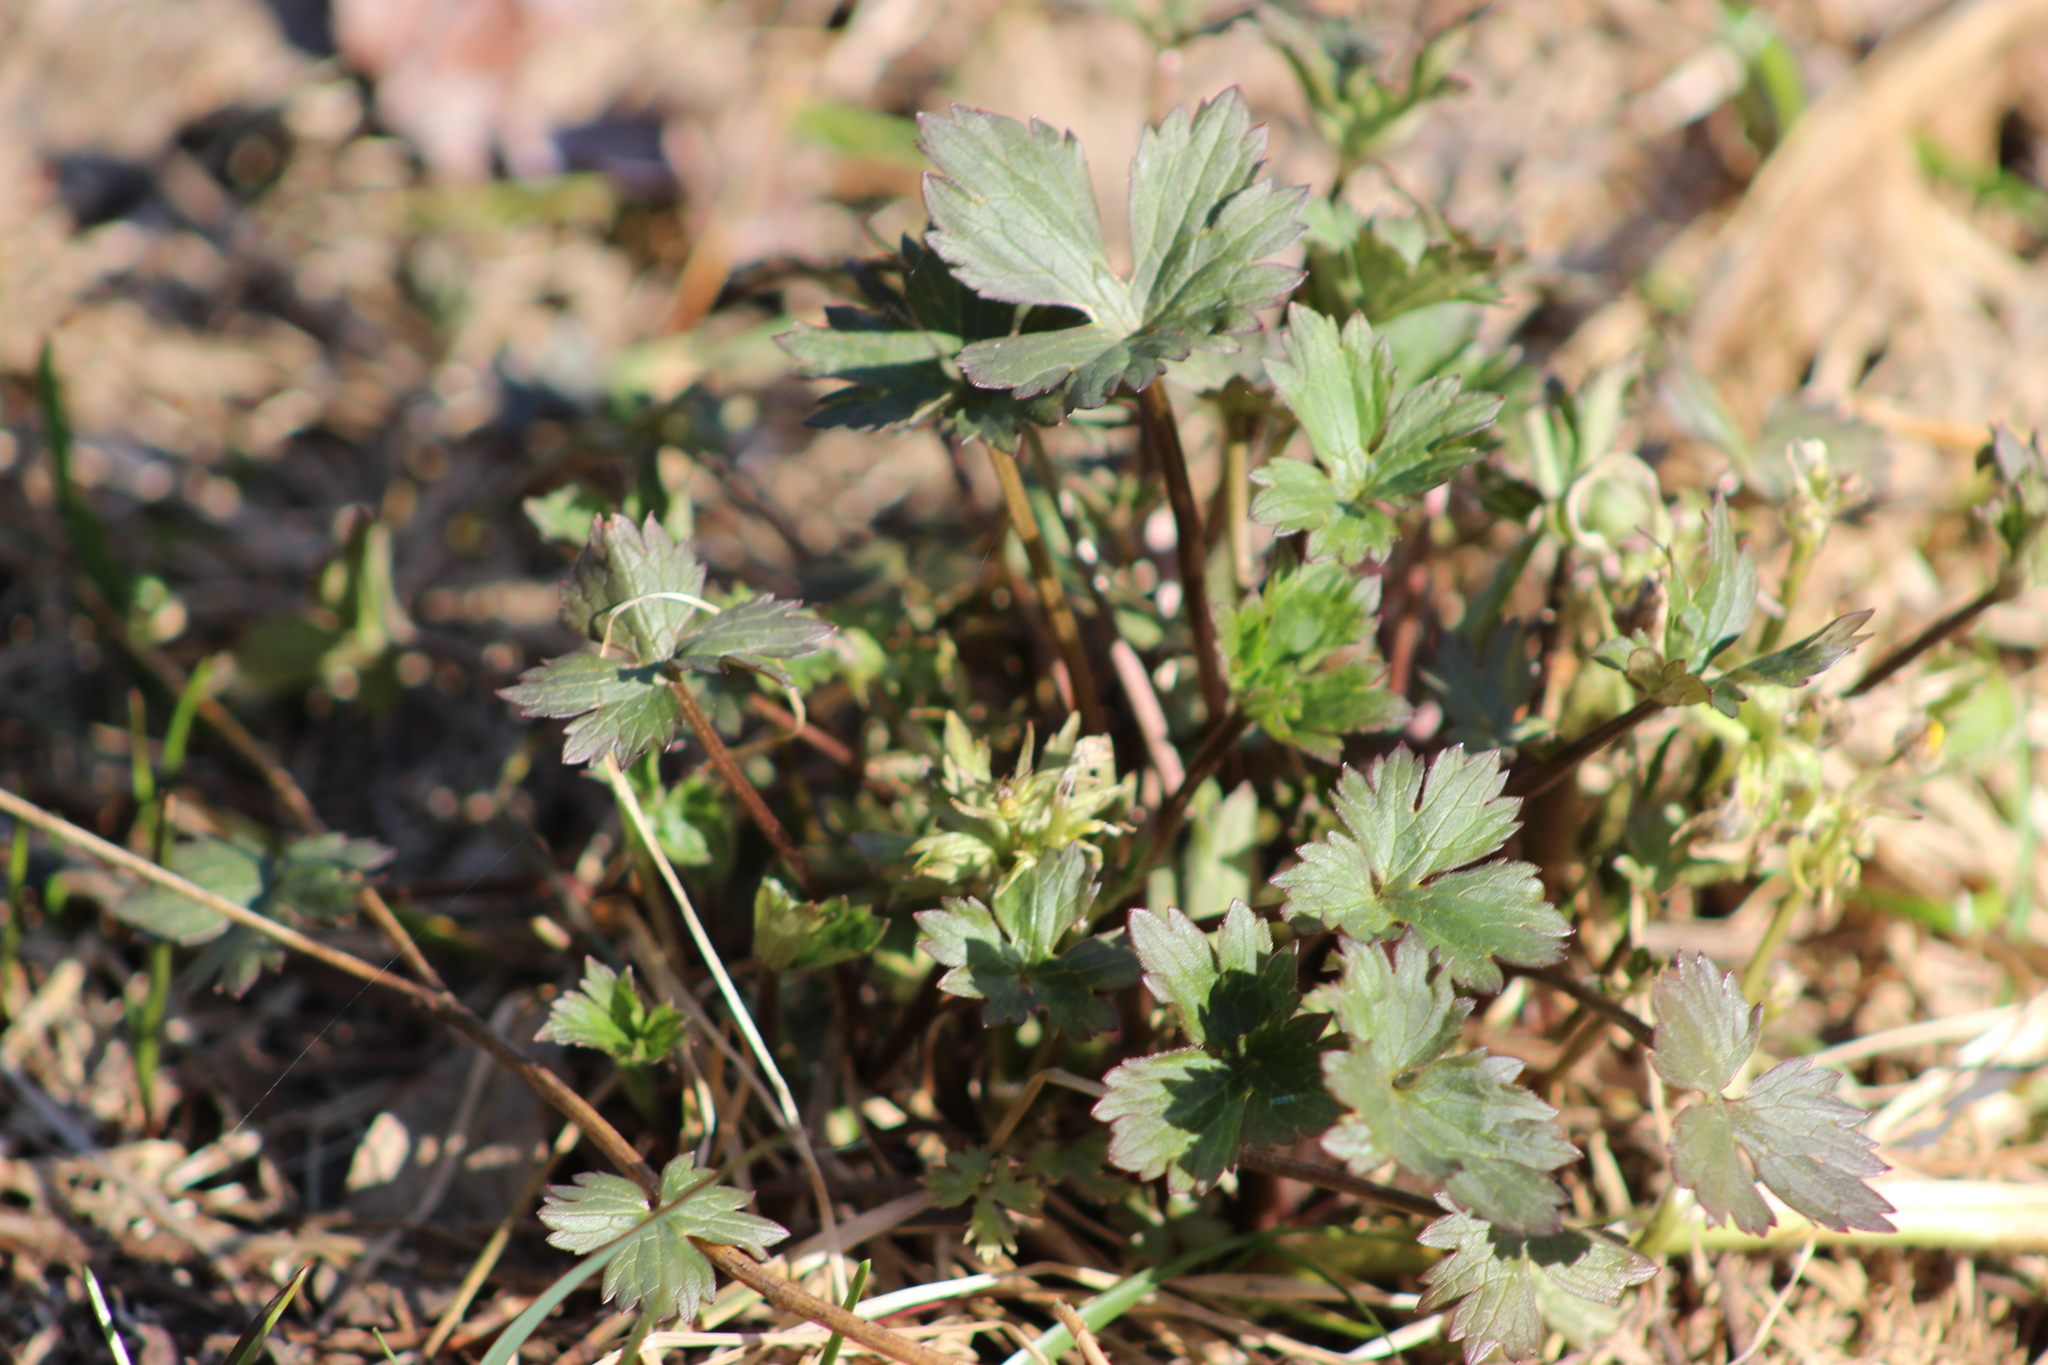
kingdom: Plantae
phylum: Tracheophyta
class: Magnoliopsida
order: Ranunculales
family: Ranunculaceae
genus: Ranunculus
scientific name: Ranunculus propinquus
